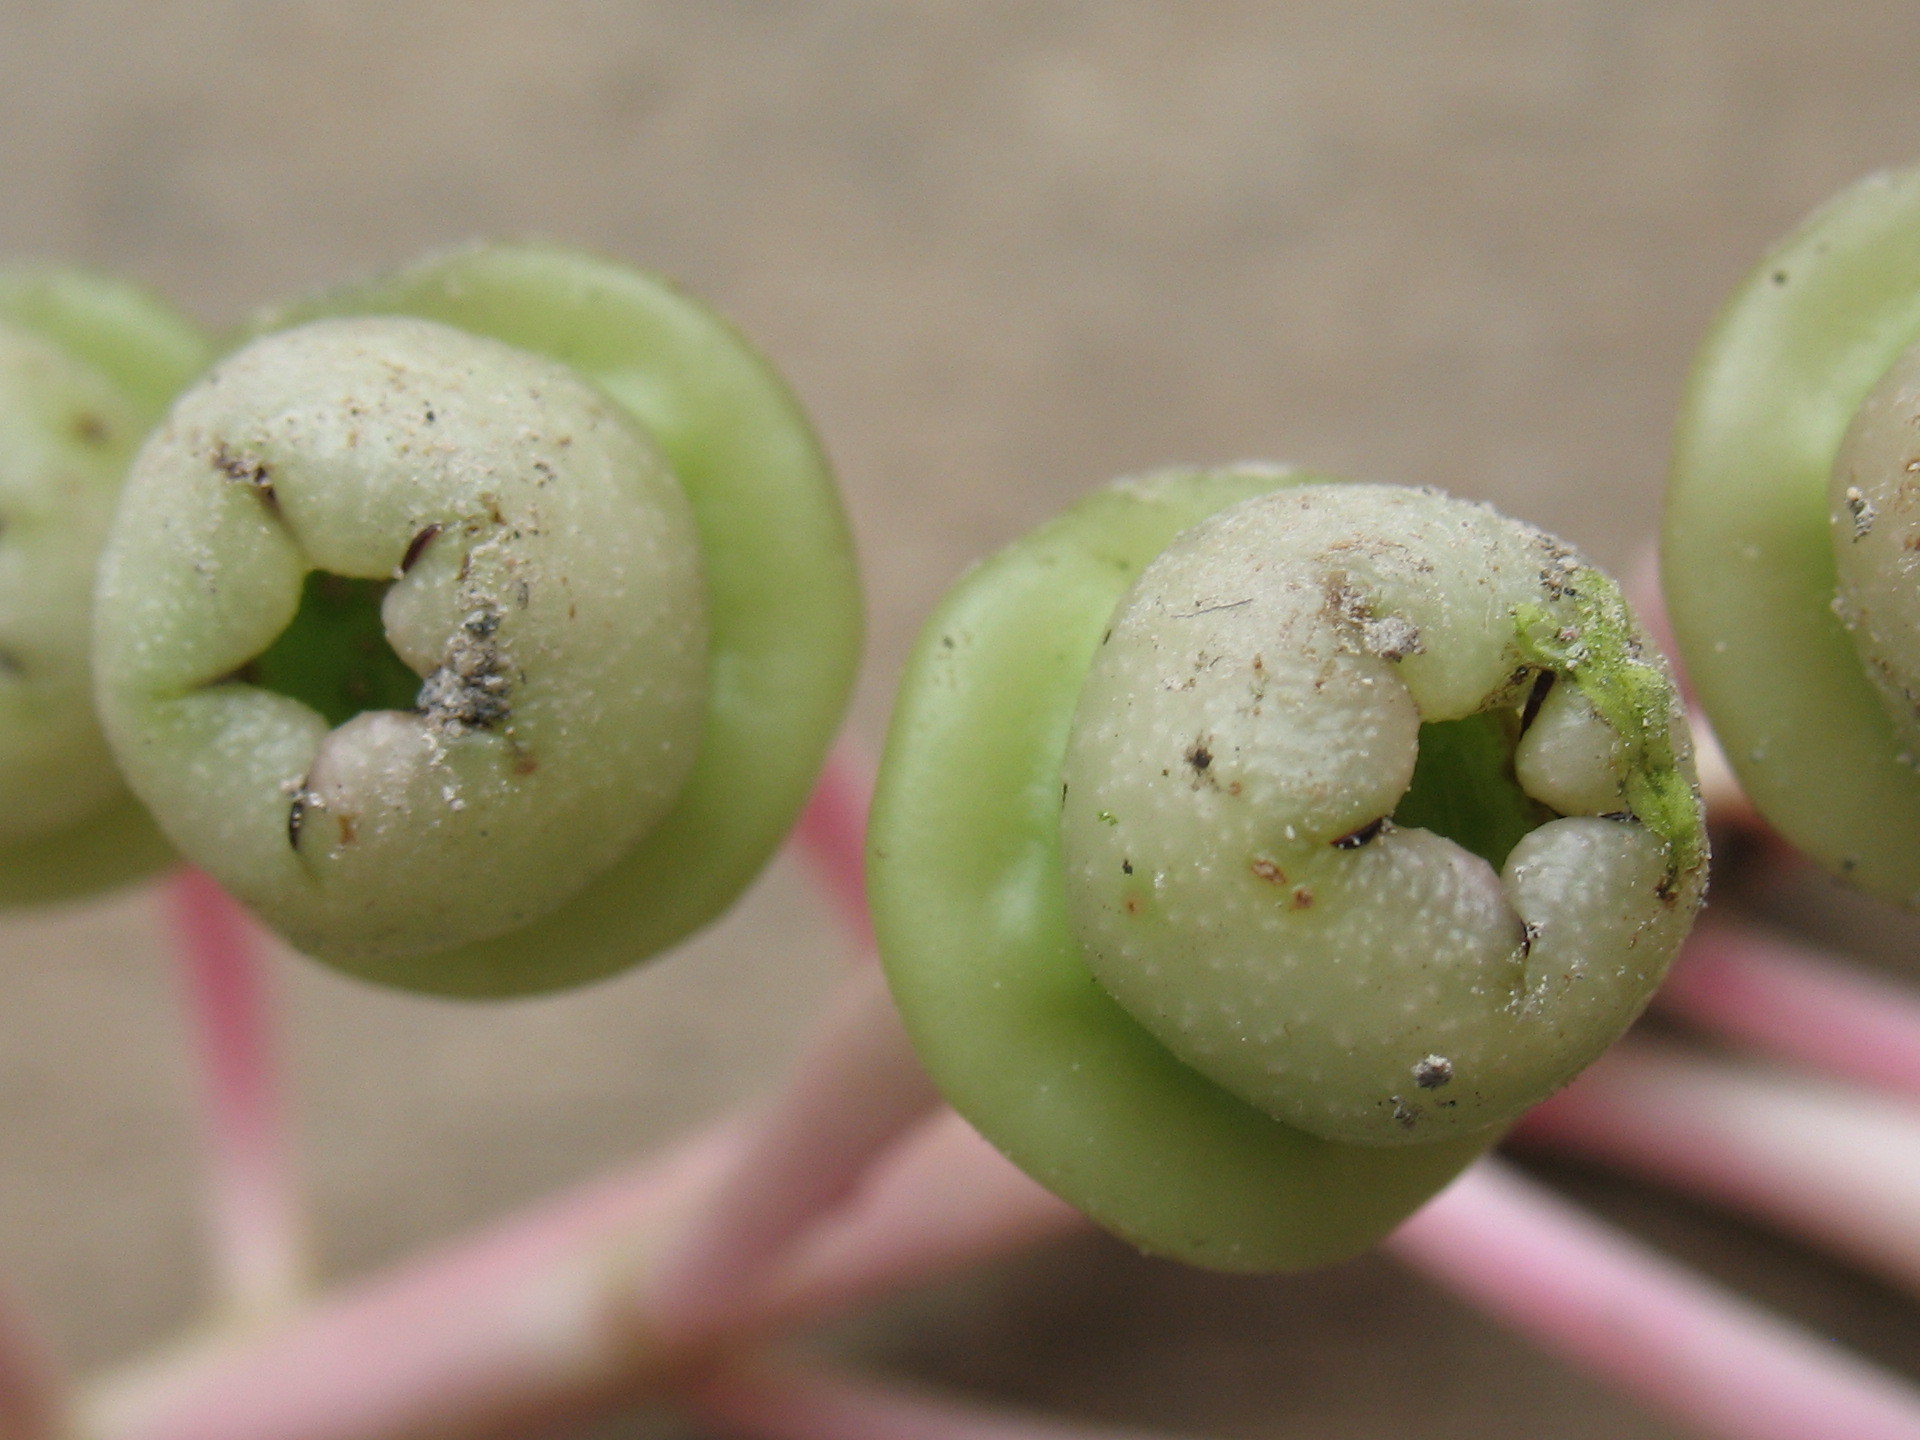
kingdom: Plantae
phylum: Tracheophyta
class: Magnoliopsida
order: Ericales
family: Ericaceae
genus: Cavendishia
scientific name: Cavendishia grandifolia
